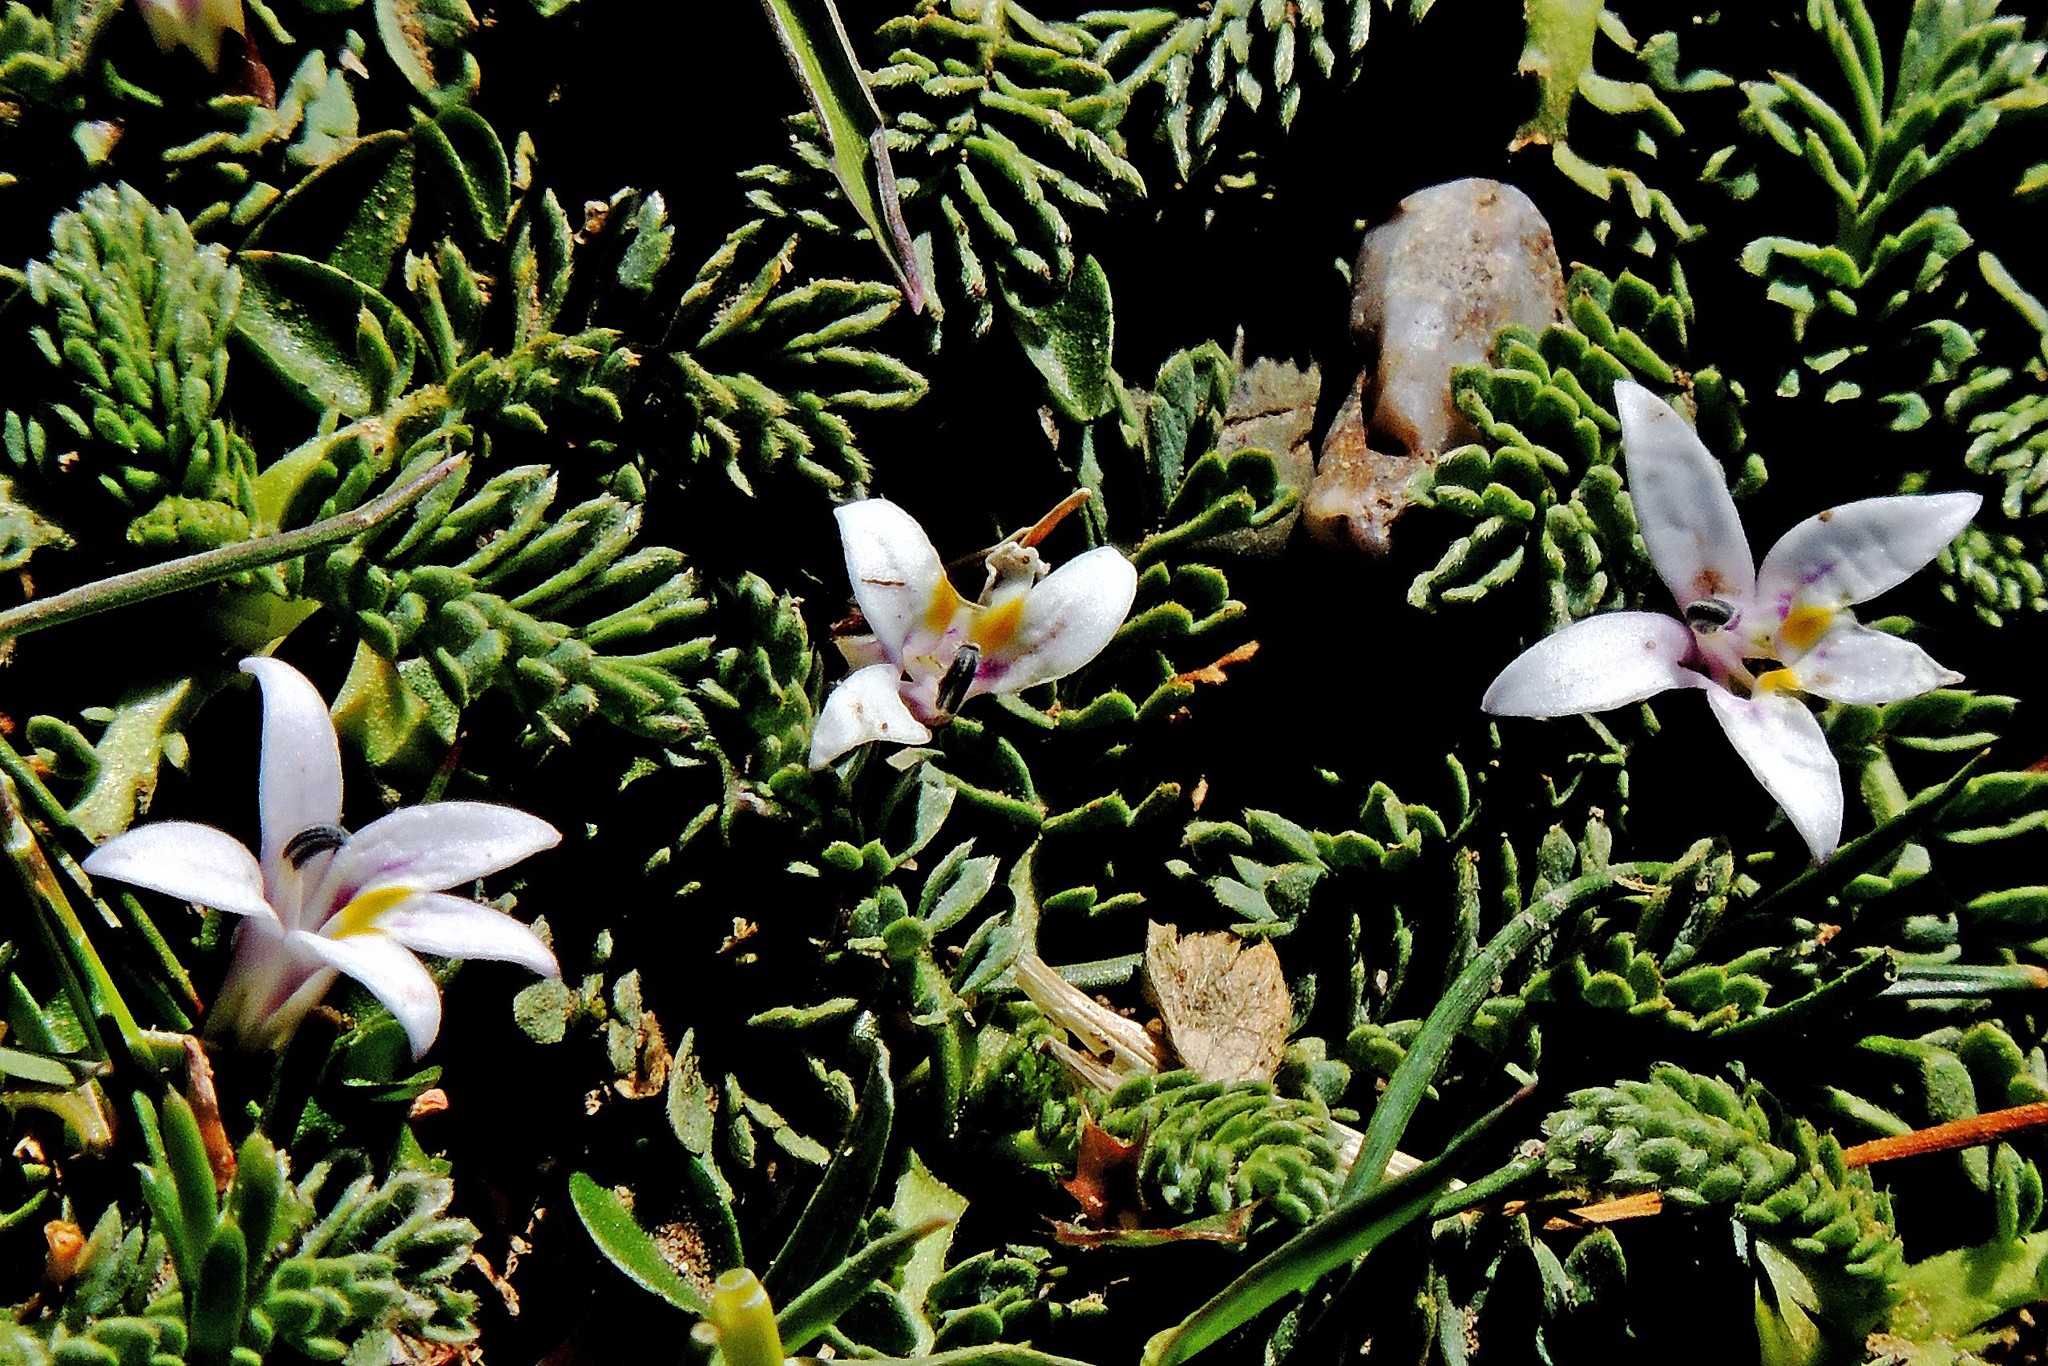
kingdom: Plantae
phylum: Tracheophyta
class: Magnoliopsida
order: Asterales
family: Campanulaceae
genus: Lobelia
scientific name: Lobelia oligophylla
